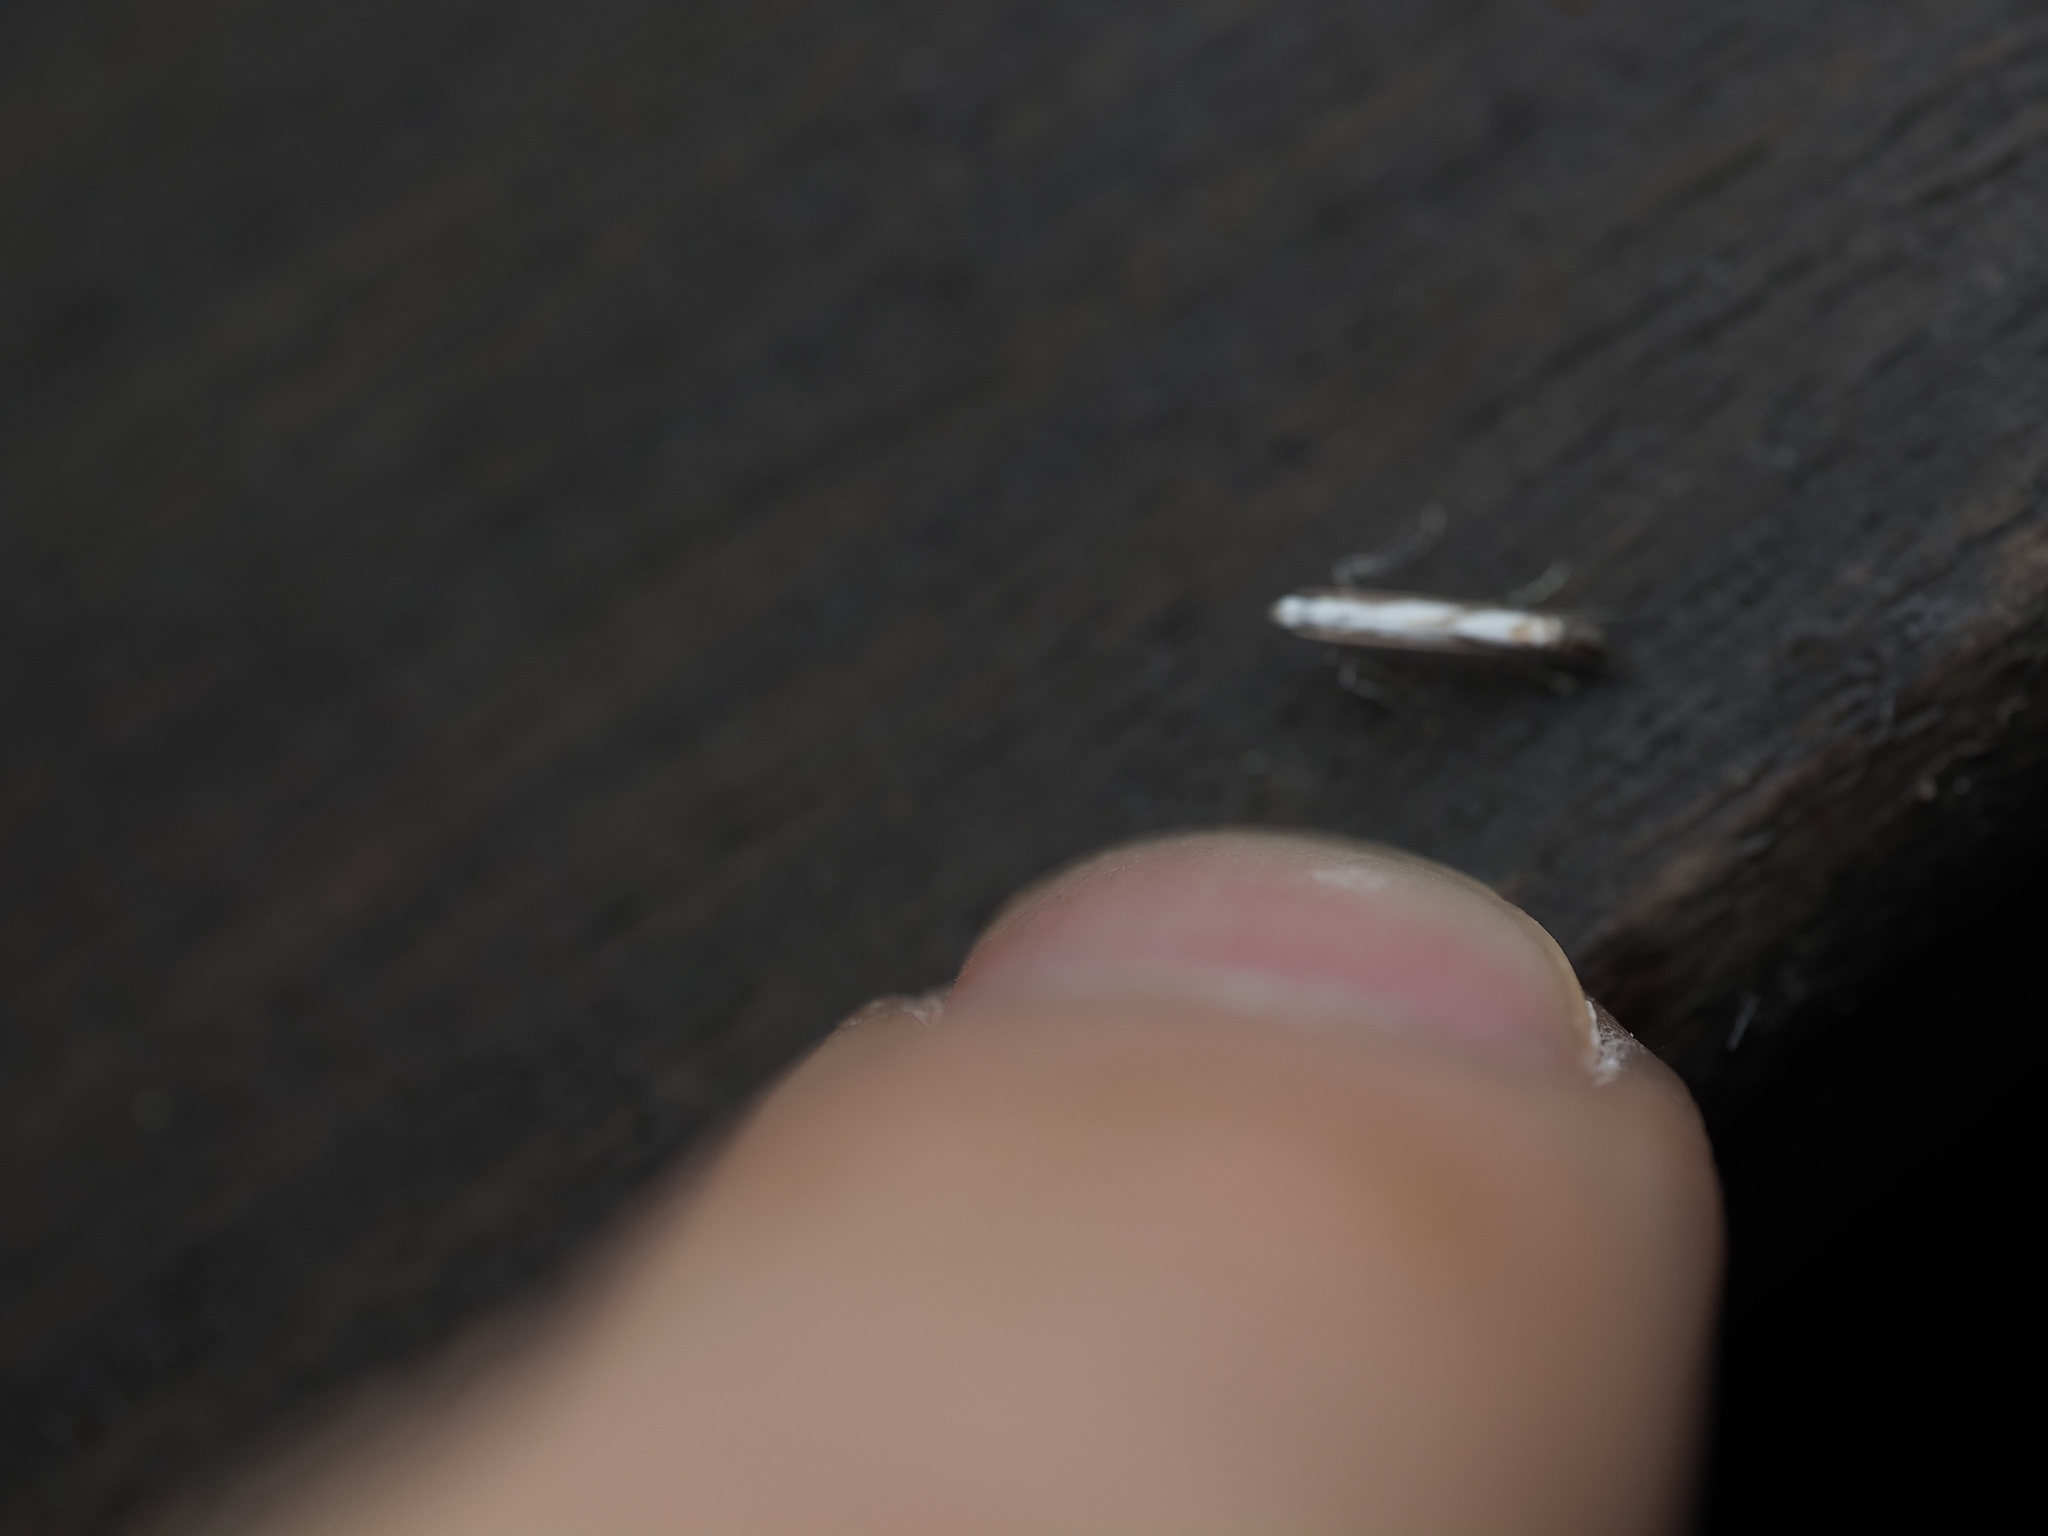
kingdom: Animalia
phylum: Arthropoda
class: Insecta
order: Lepidoptera
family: Gracillariidae
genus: Acrocercops
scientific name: Acrocercops leucotoma
